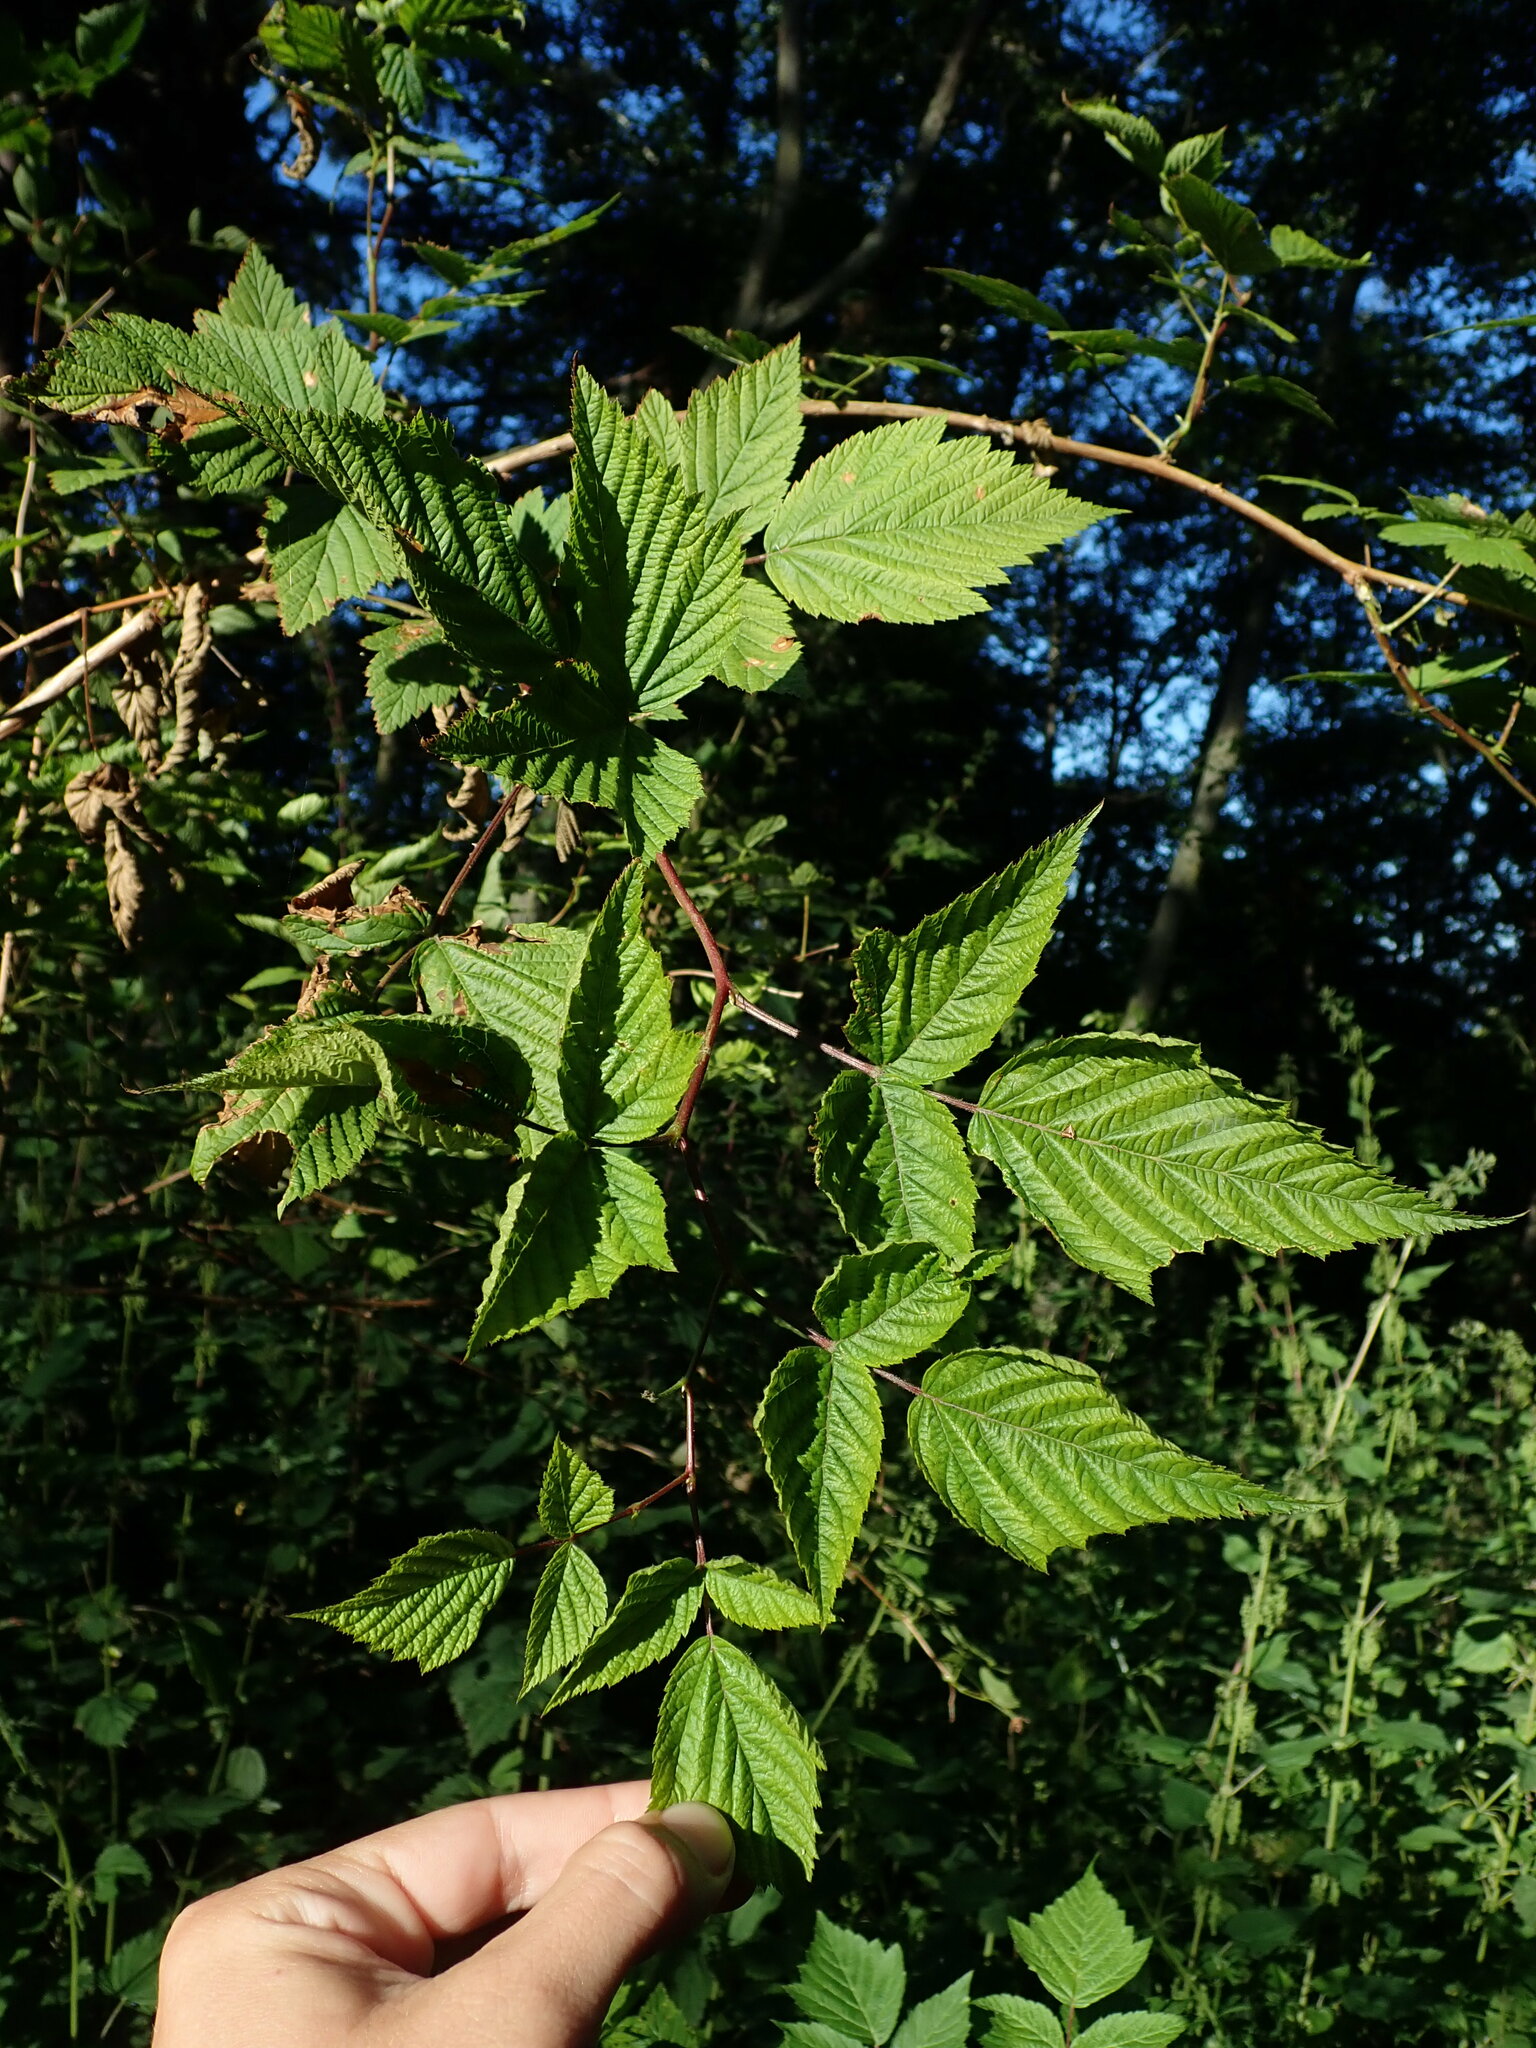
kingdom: Plantae
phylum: Tracheophyta
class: Magnoliopsida
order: Rosales
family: Rosaceae
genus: Rubus
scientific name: Rubus spectabilis
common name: Salmonberry
